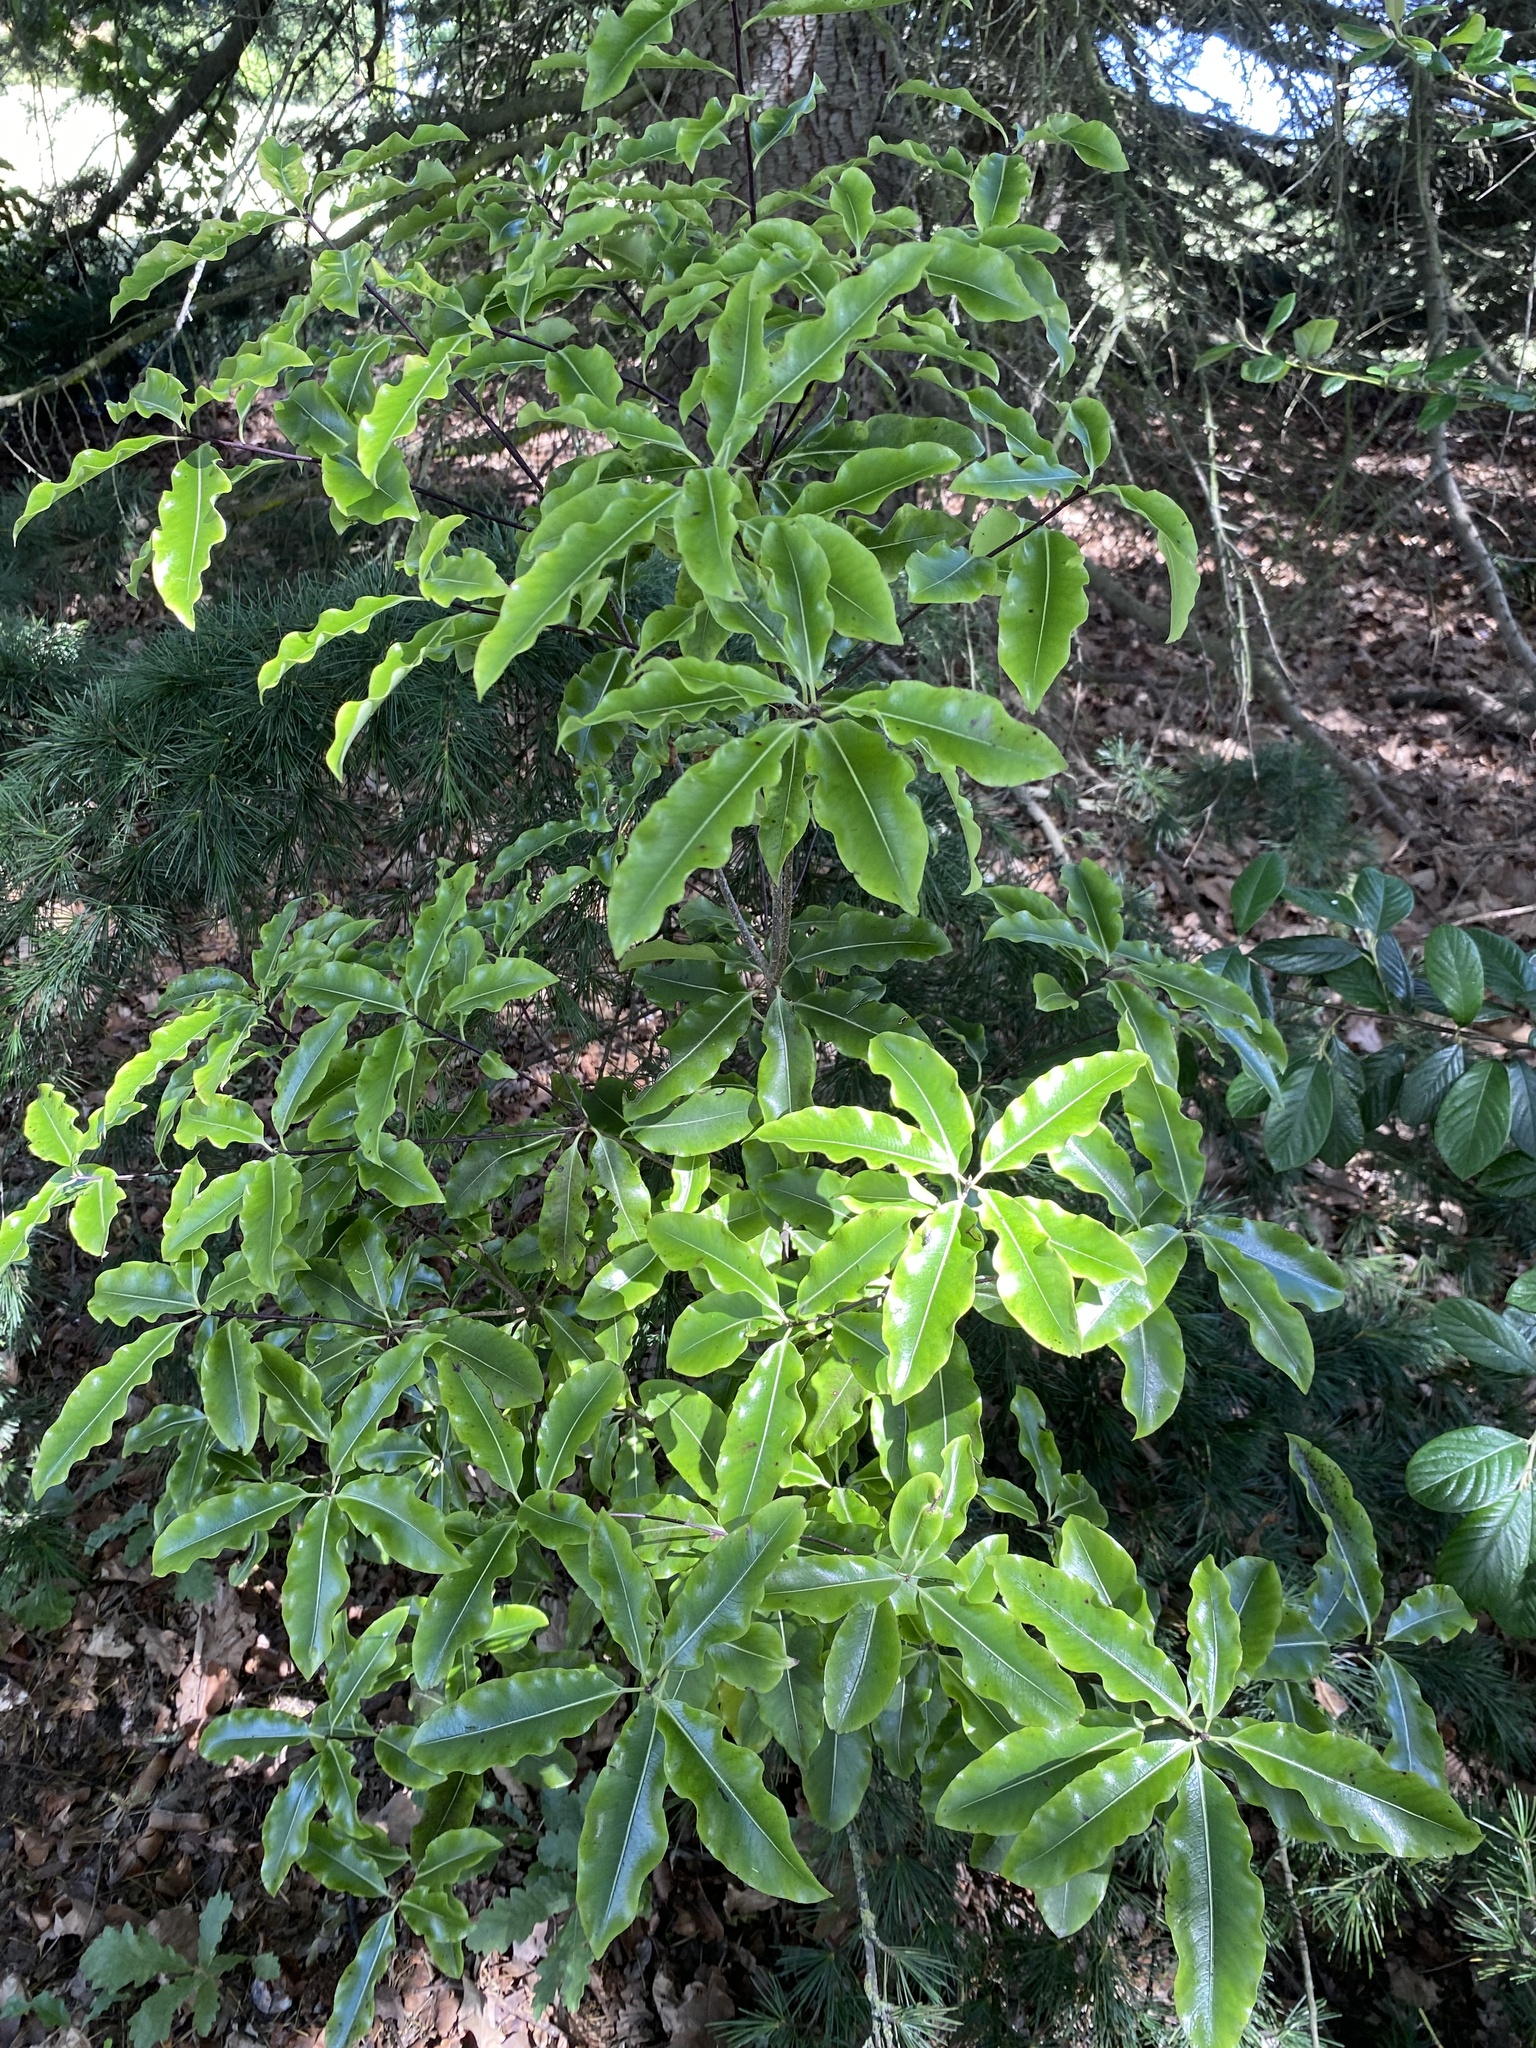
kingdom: Plantae
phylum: Tracheophyta
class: Magnoliopsida
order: Apiales
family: Pittosporaceae
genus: Pittosporum
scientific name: Pittosporum eugenioides
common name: Lemonwood
